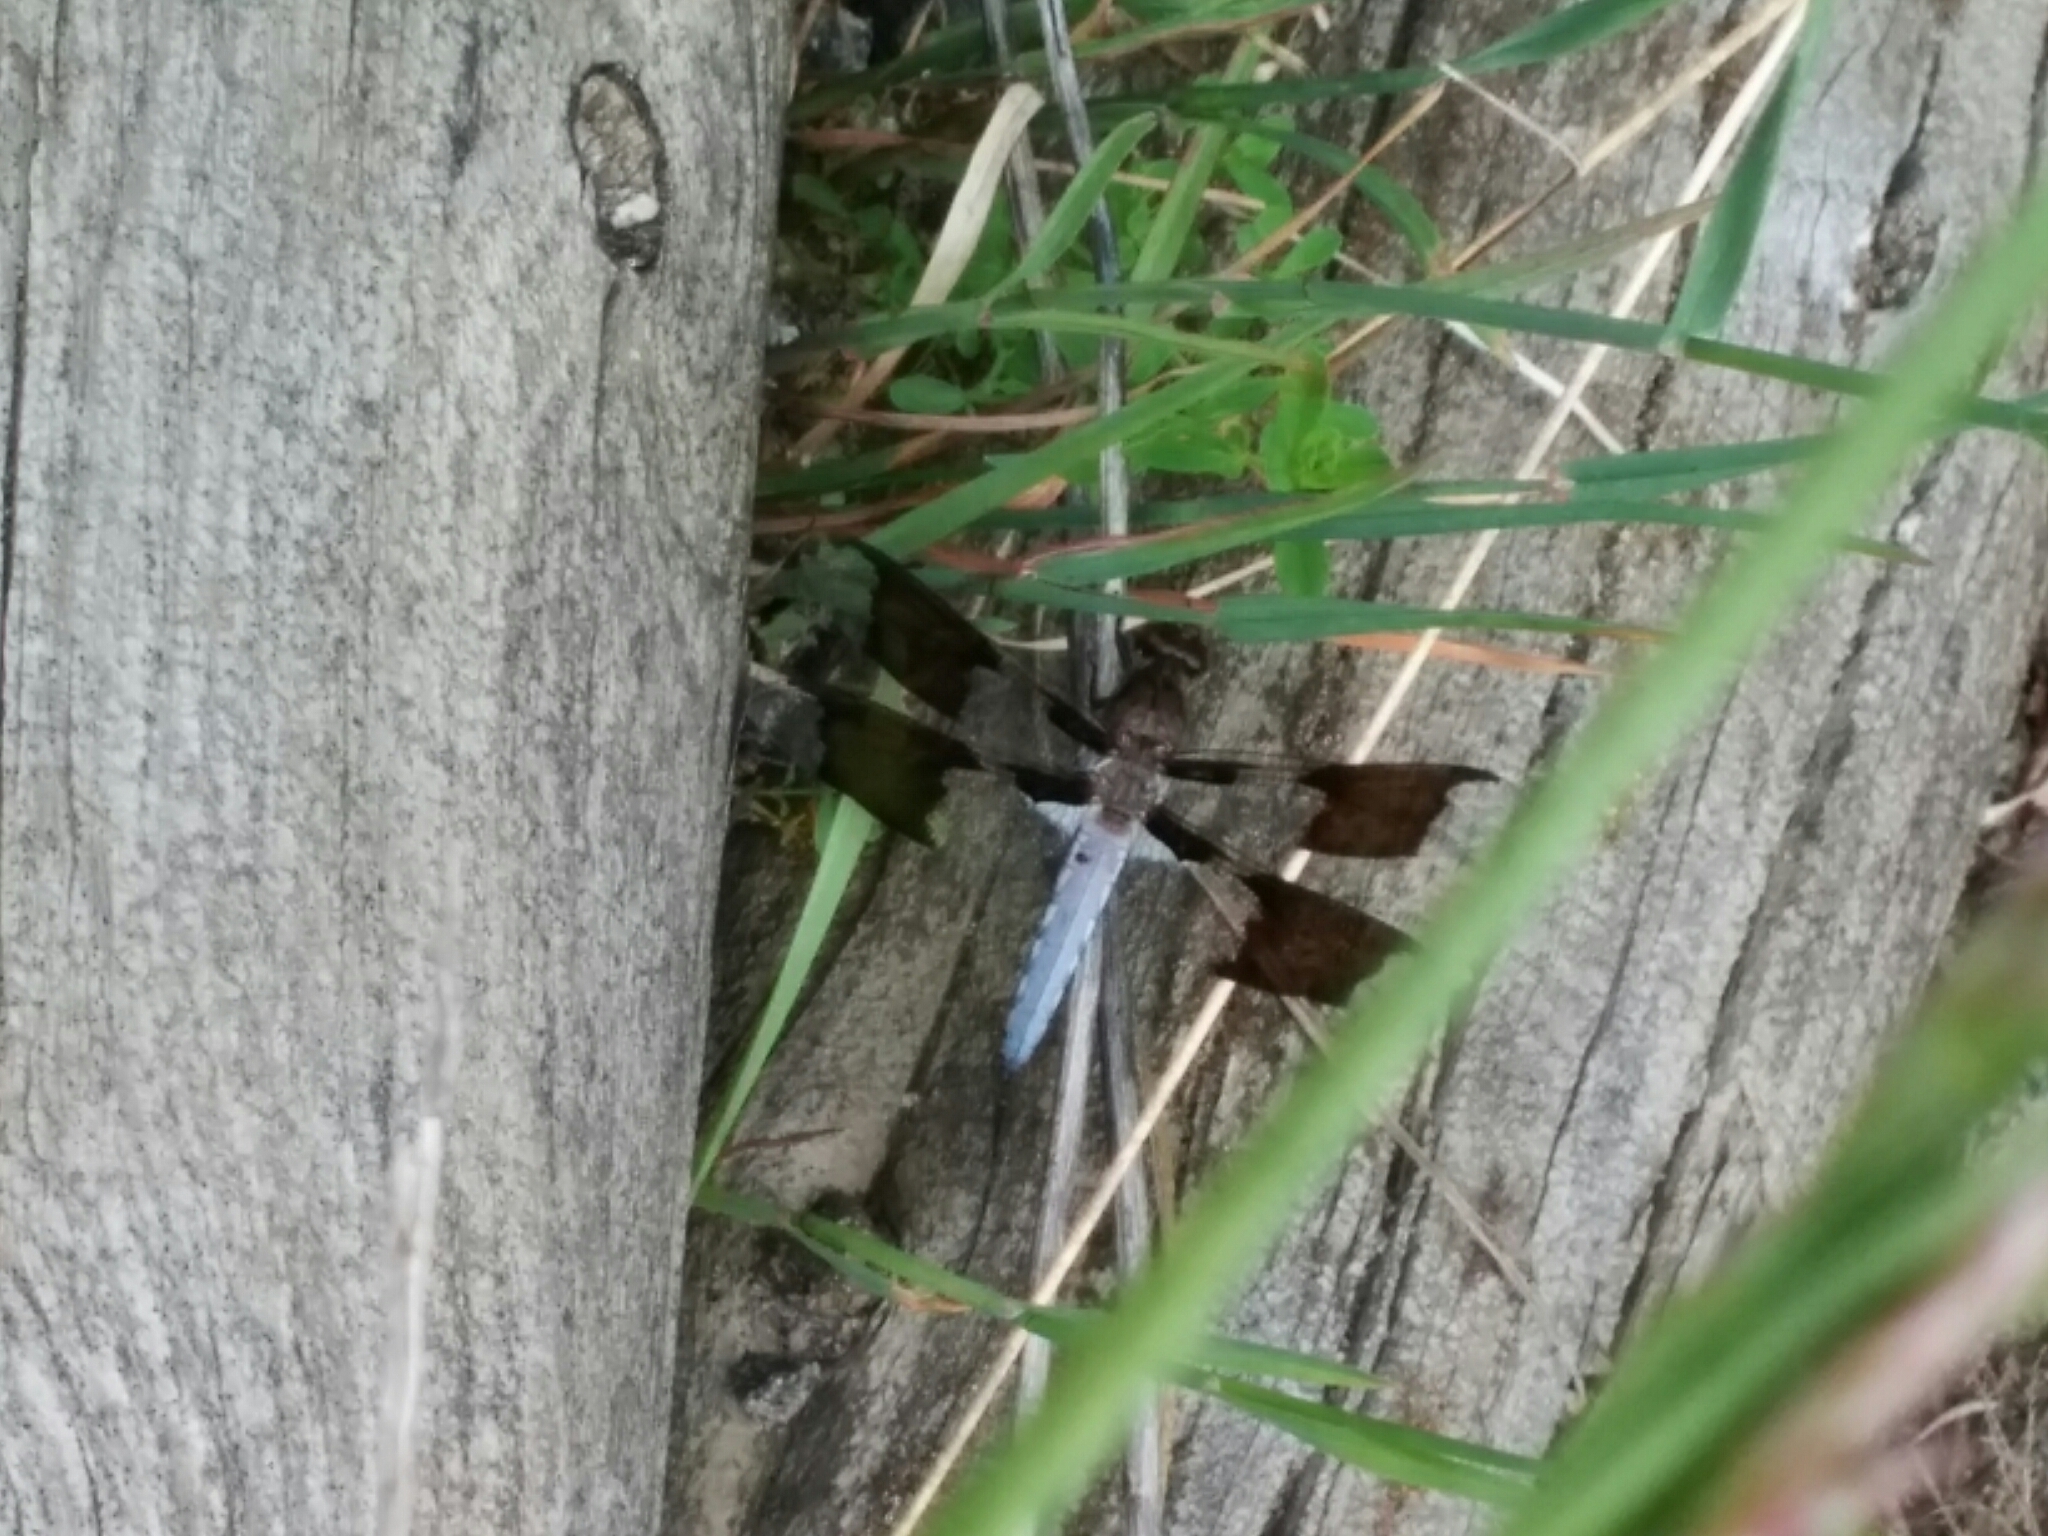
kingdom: Animalia
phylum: Arthropoda
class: Insecta
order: Odonata
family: Libellulidae
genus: Plathemis
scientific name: Plathemis lydia
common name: Common whitetail
